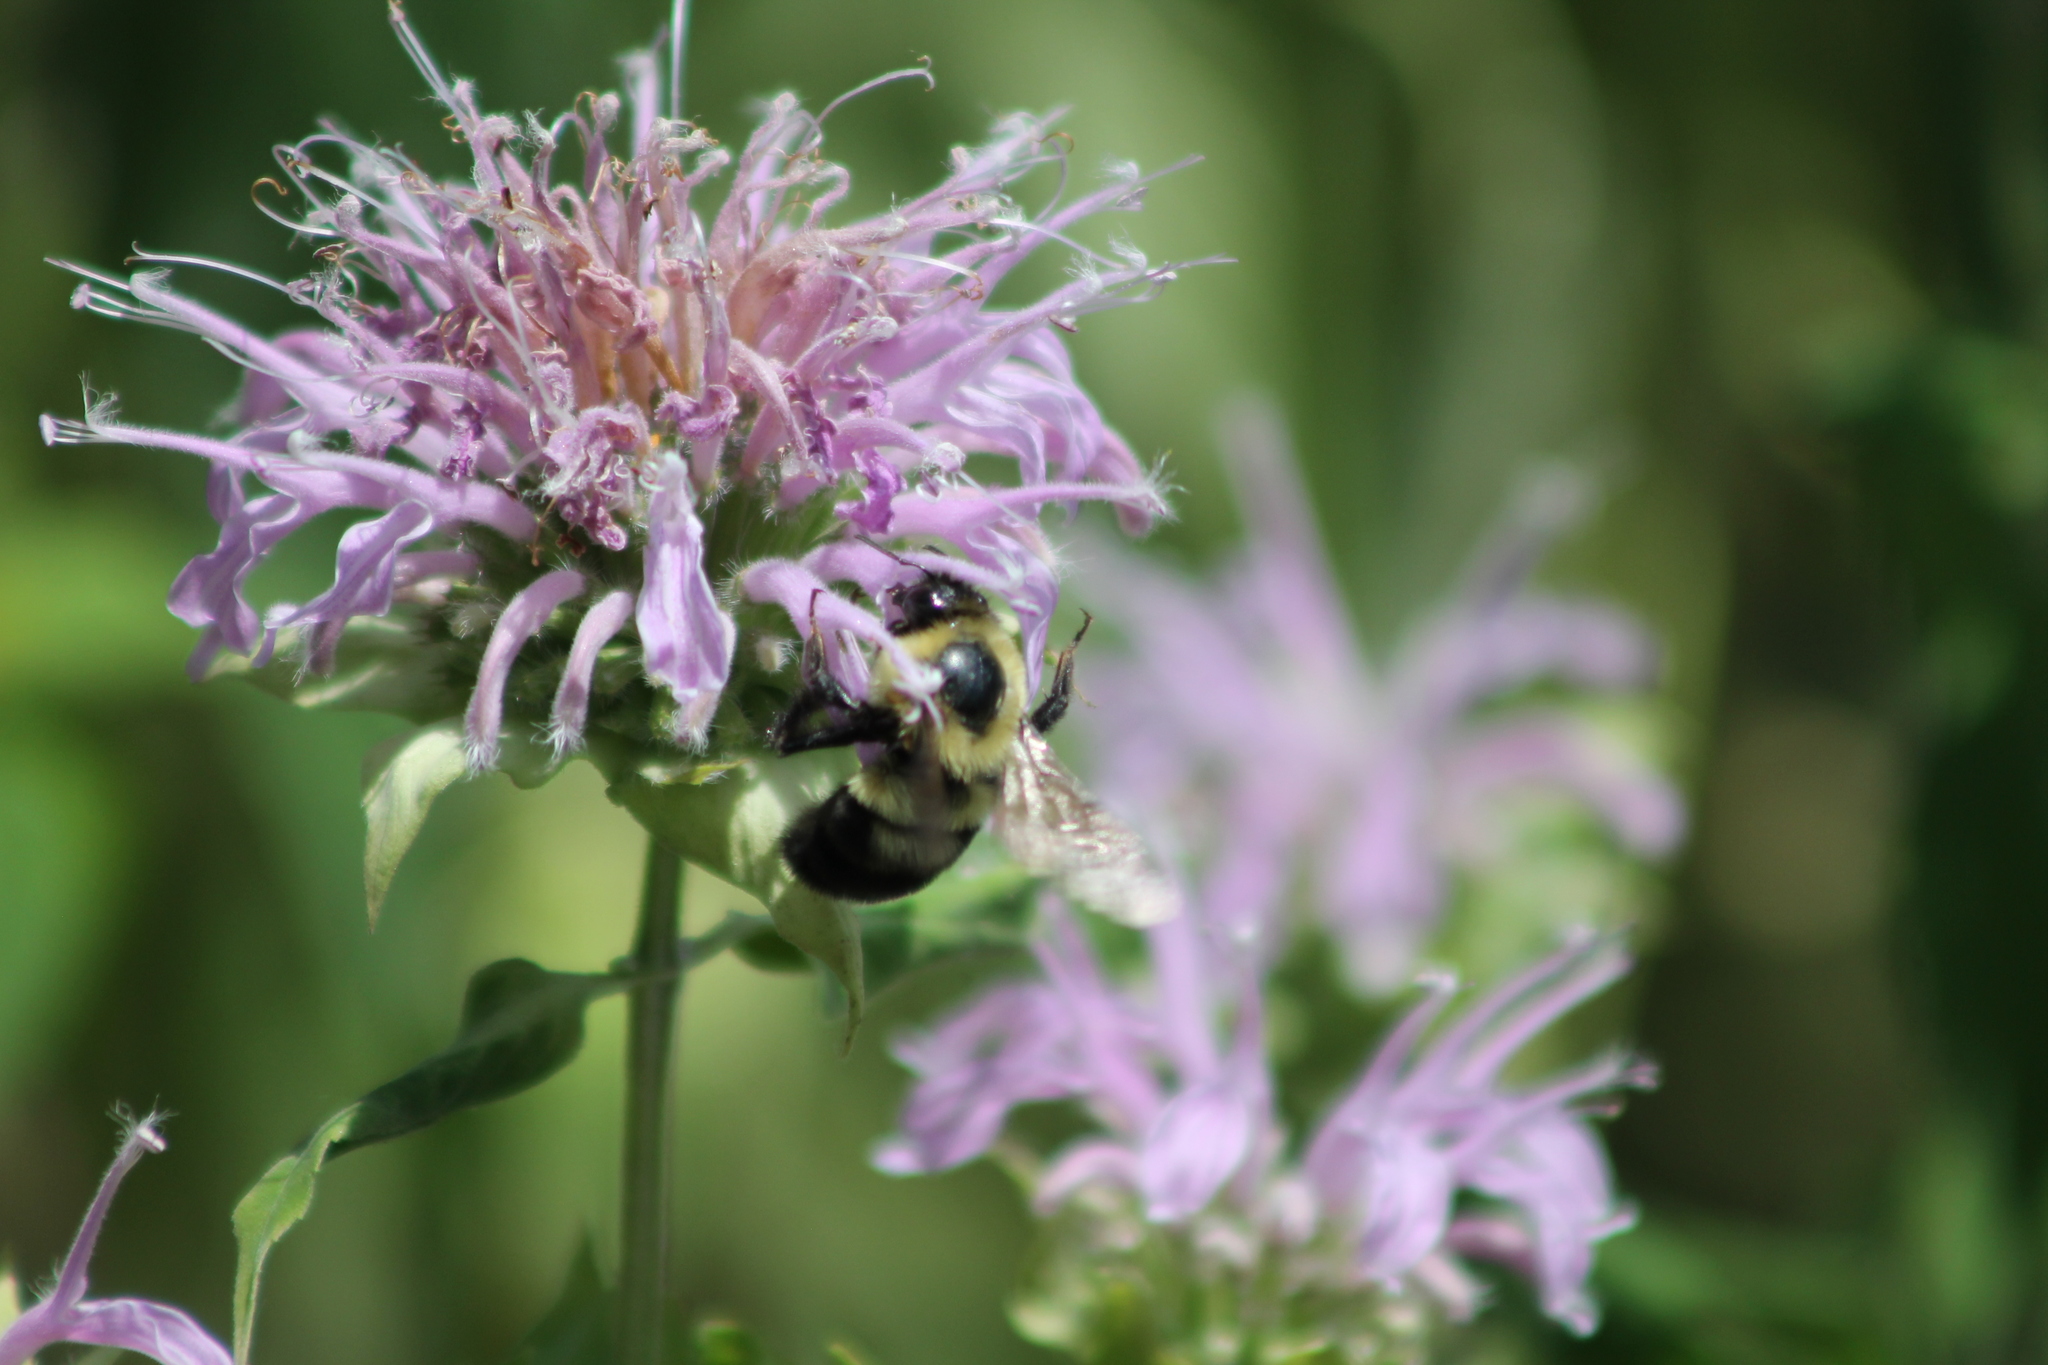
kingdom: Animalia
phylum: Arthropoda
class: Insecta
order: Hymenoptera
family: Apidae
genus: Bombus
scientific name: Bombus bimaculatus
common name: Two-spotted bumble bee
